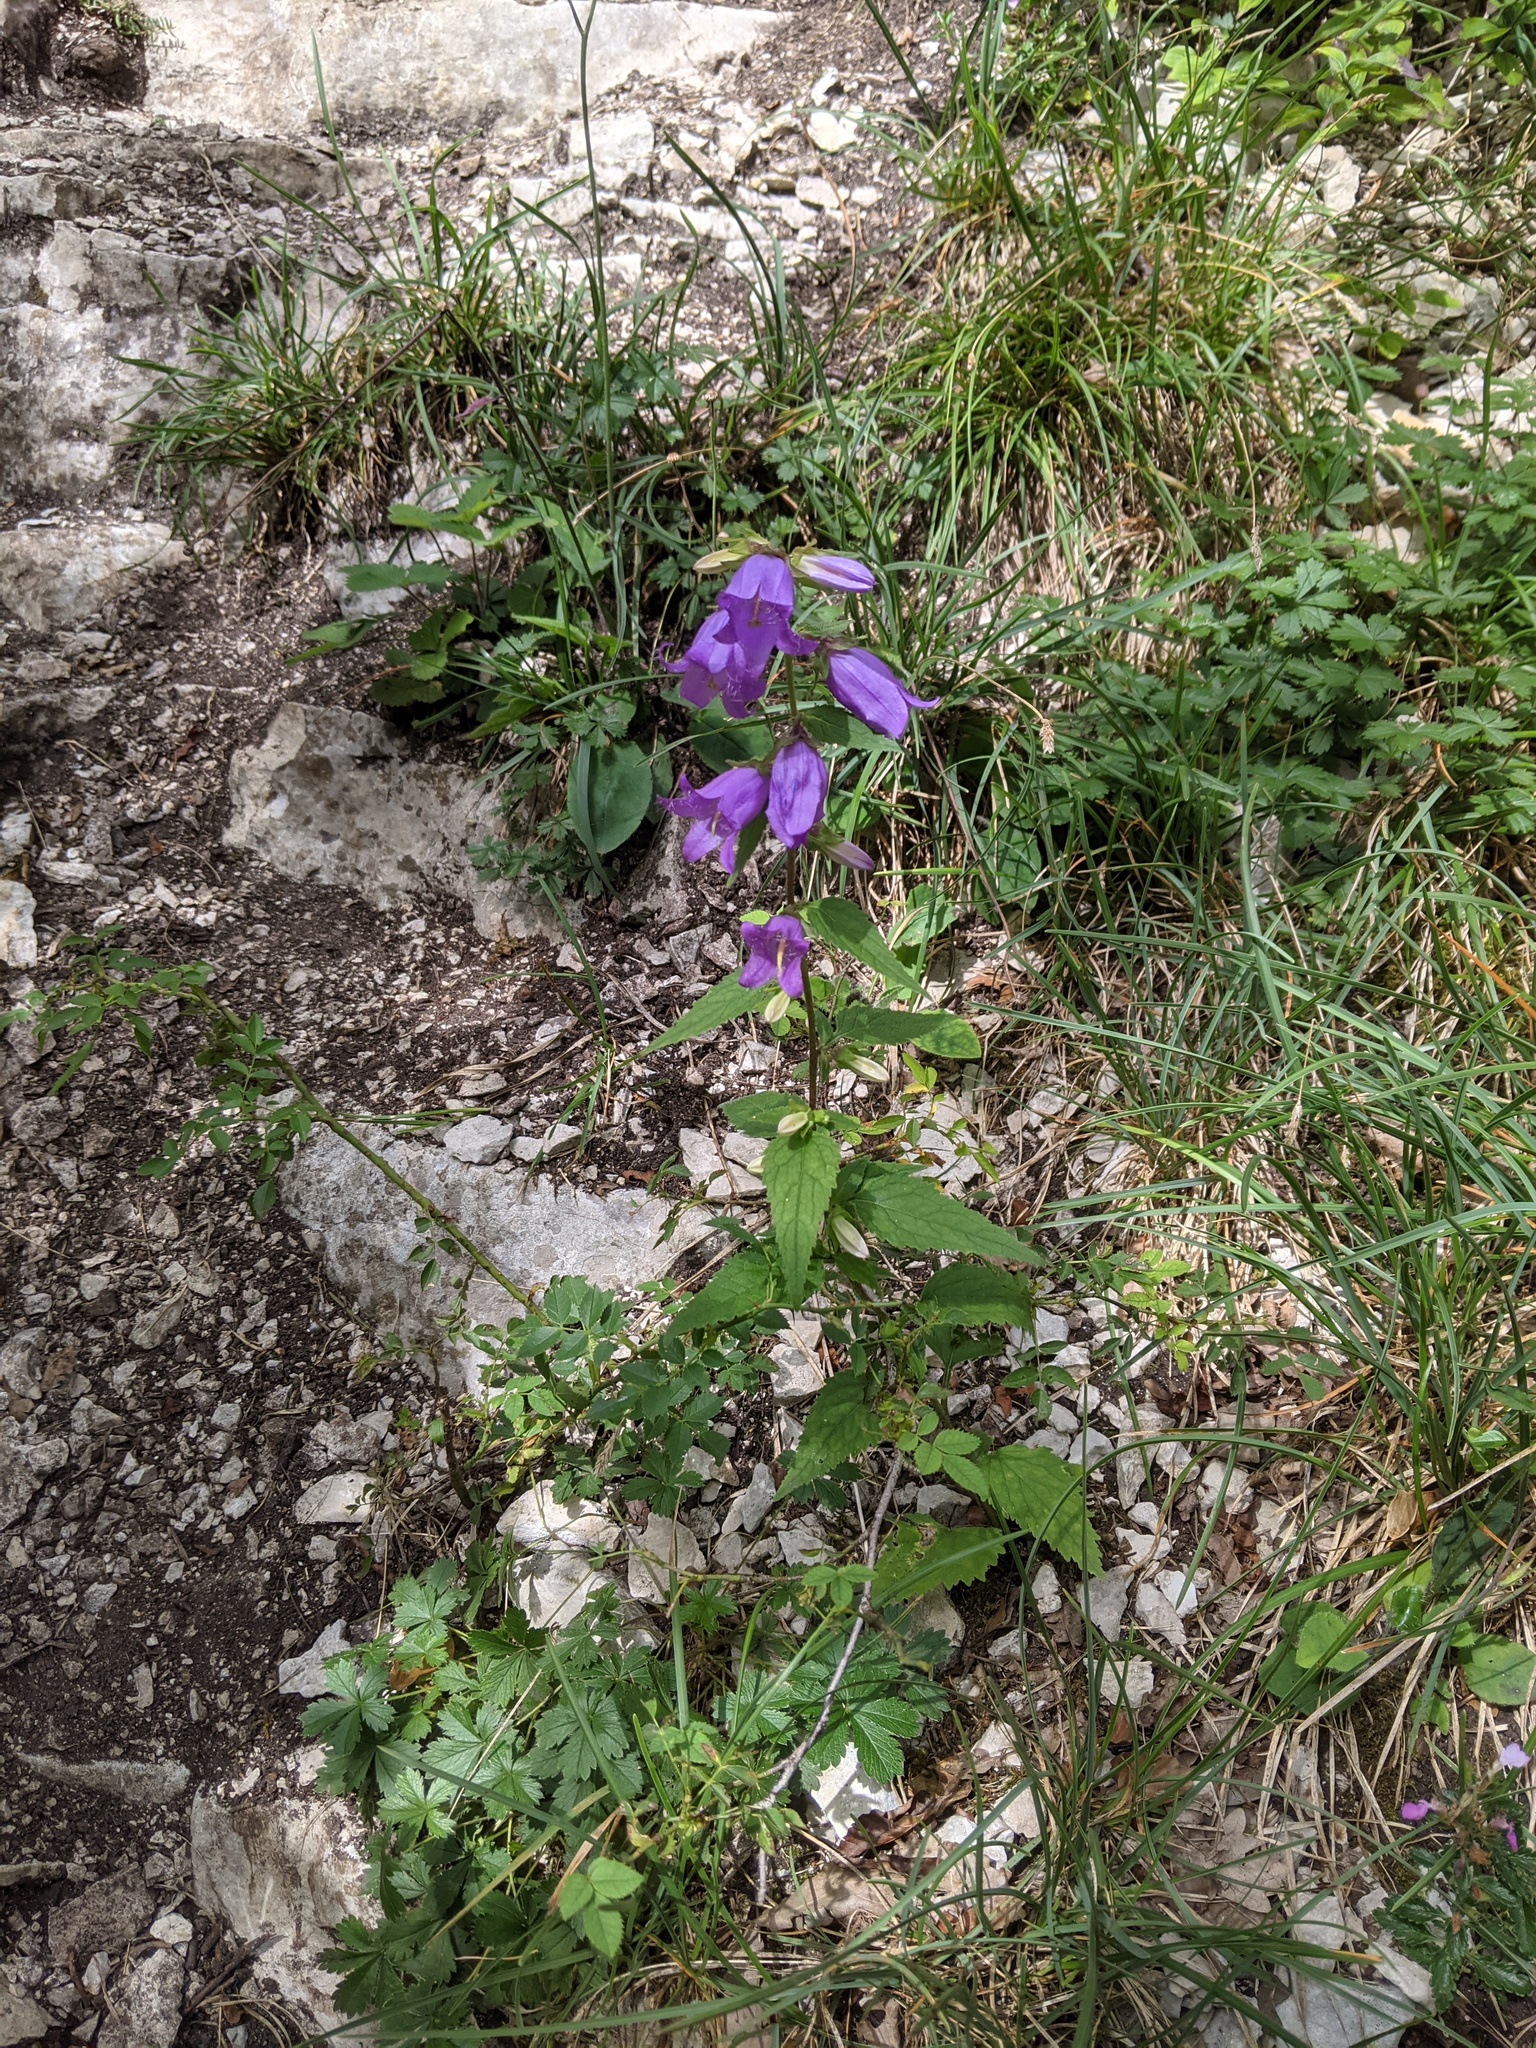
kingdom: Plantae
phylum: Tracheophyta
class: Magnoliopsida
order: Asterales
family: Campanulaceae
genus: Campanula
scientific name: Campanula trachelium
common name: Nettle-leaved bellflower
